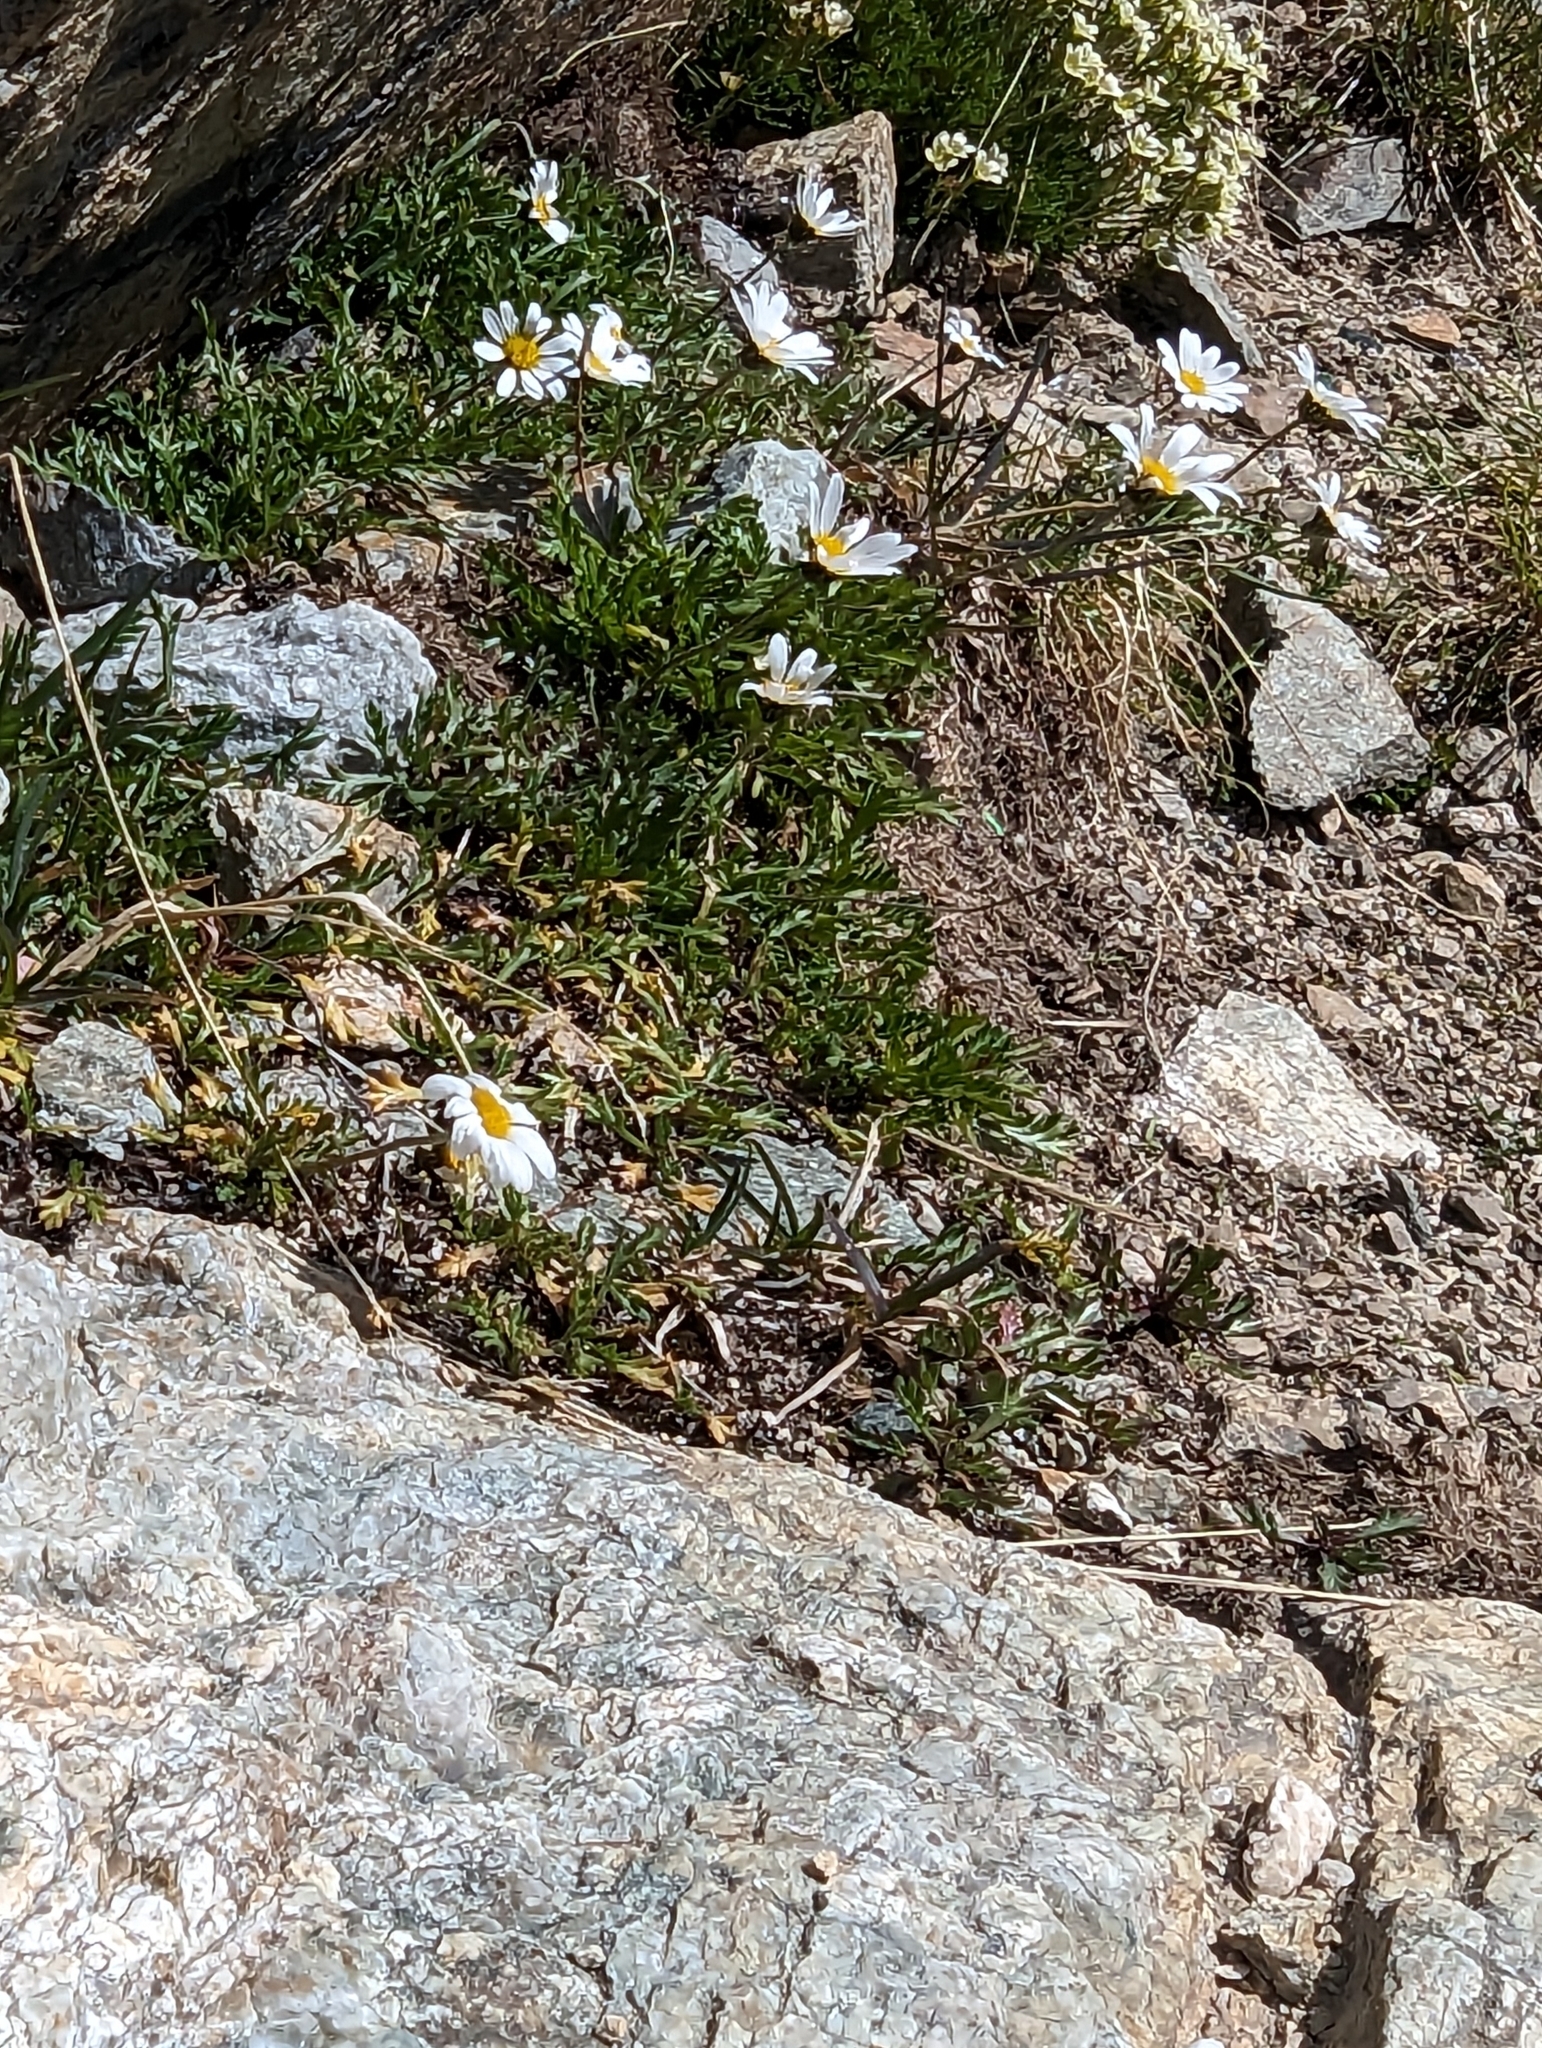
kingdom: Plantae
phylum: Tracheophyta
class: Magnoliopsida
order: Asterales
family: Asteraceae
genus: Leucanthemopsis
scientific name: Leucanthemopsis alpina
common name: Alpine moon daisy
